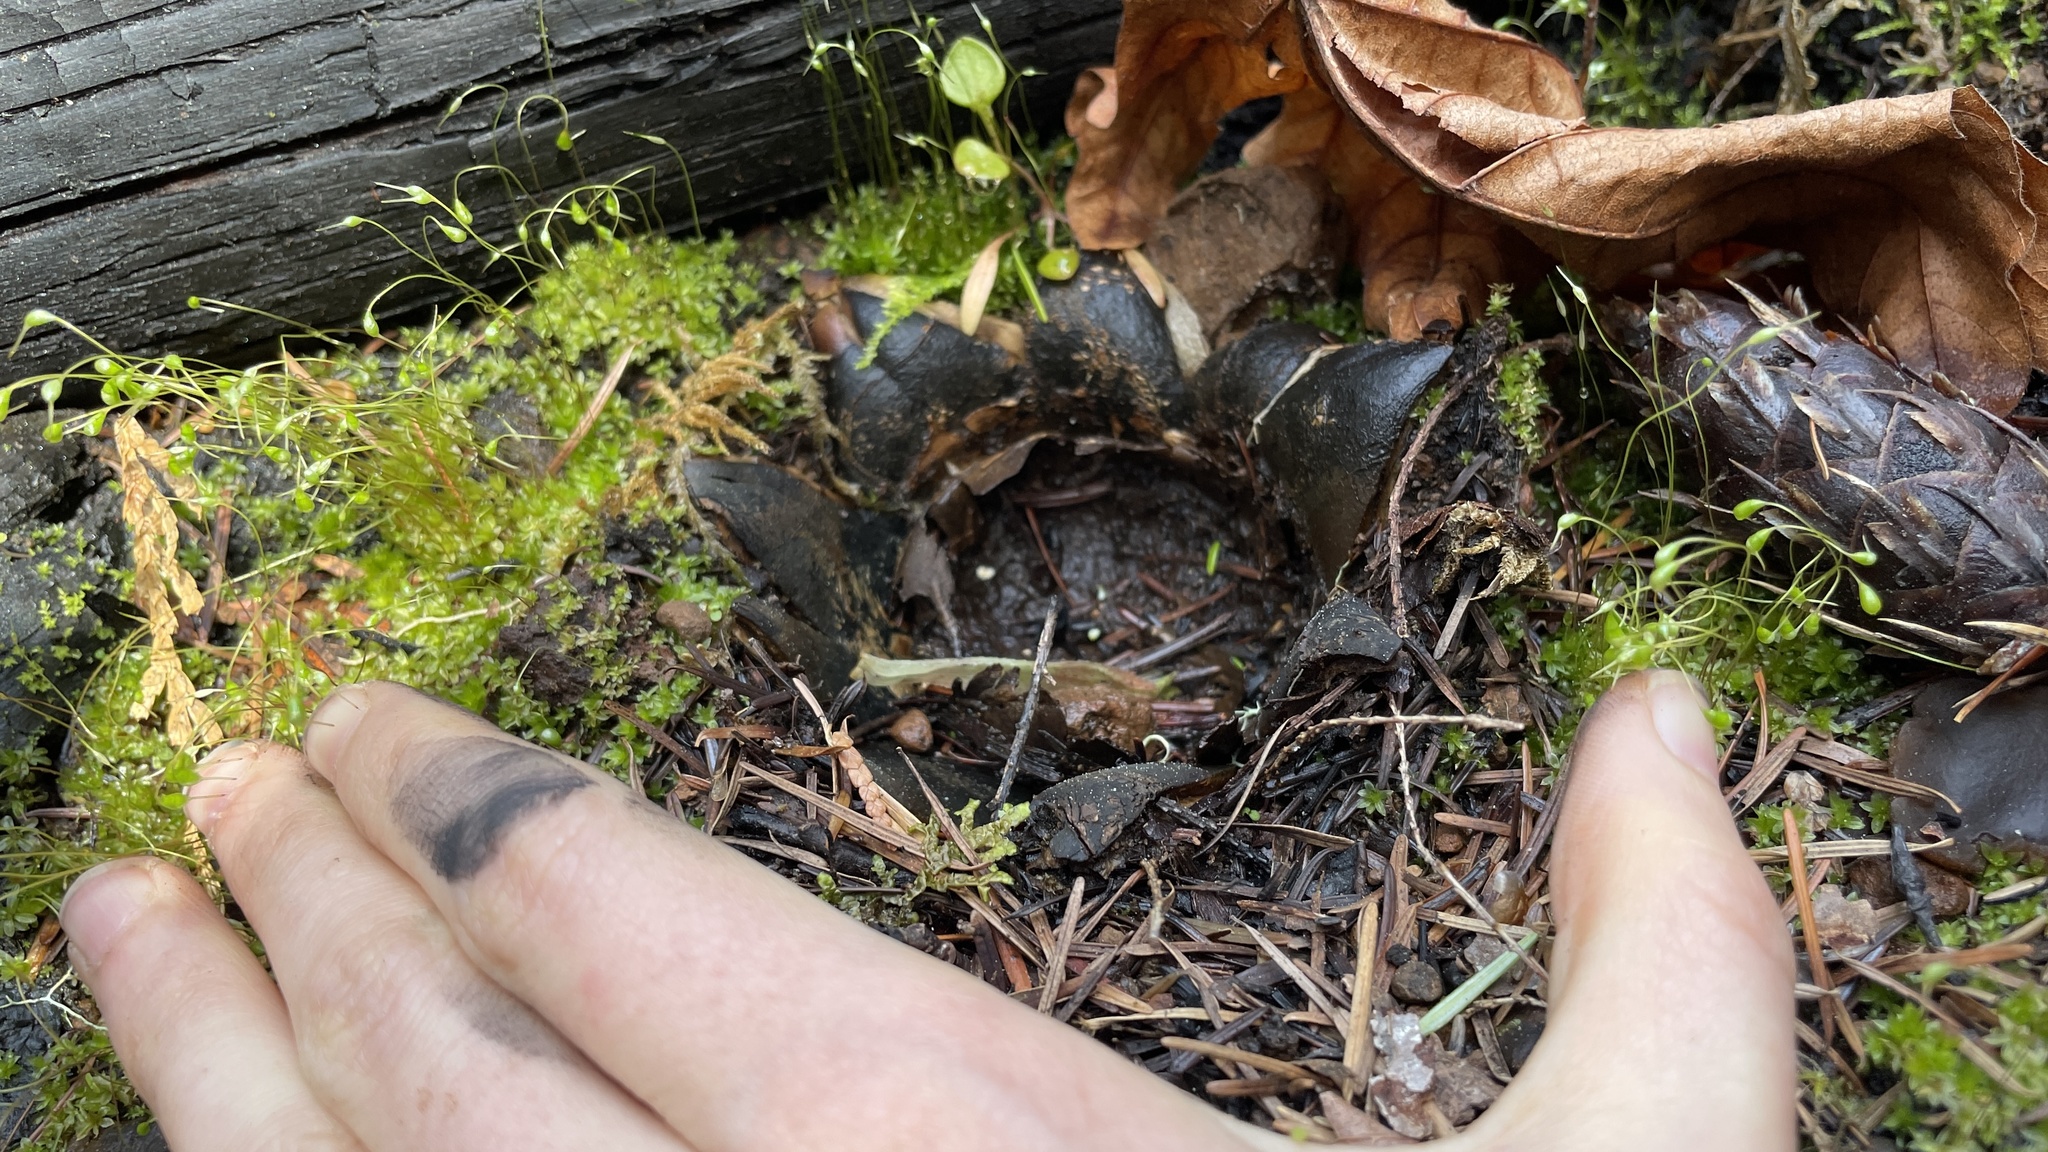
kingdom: Fungi
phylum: Basidiomycota
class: Agaricomycetes
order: Boletales
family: Diplocystidiaceae
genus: Astraeus
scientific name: Astraeus pteridis
